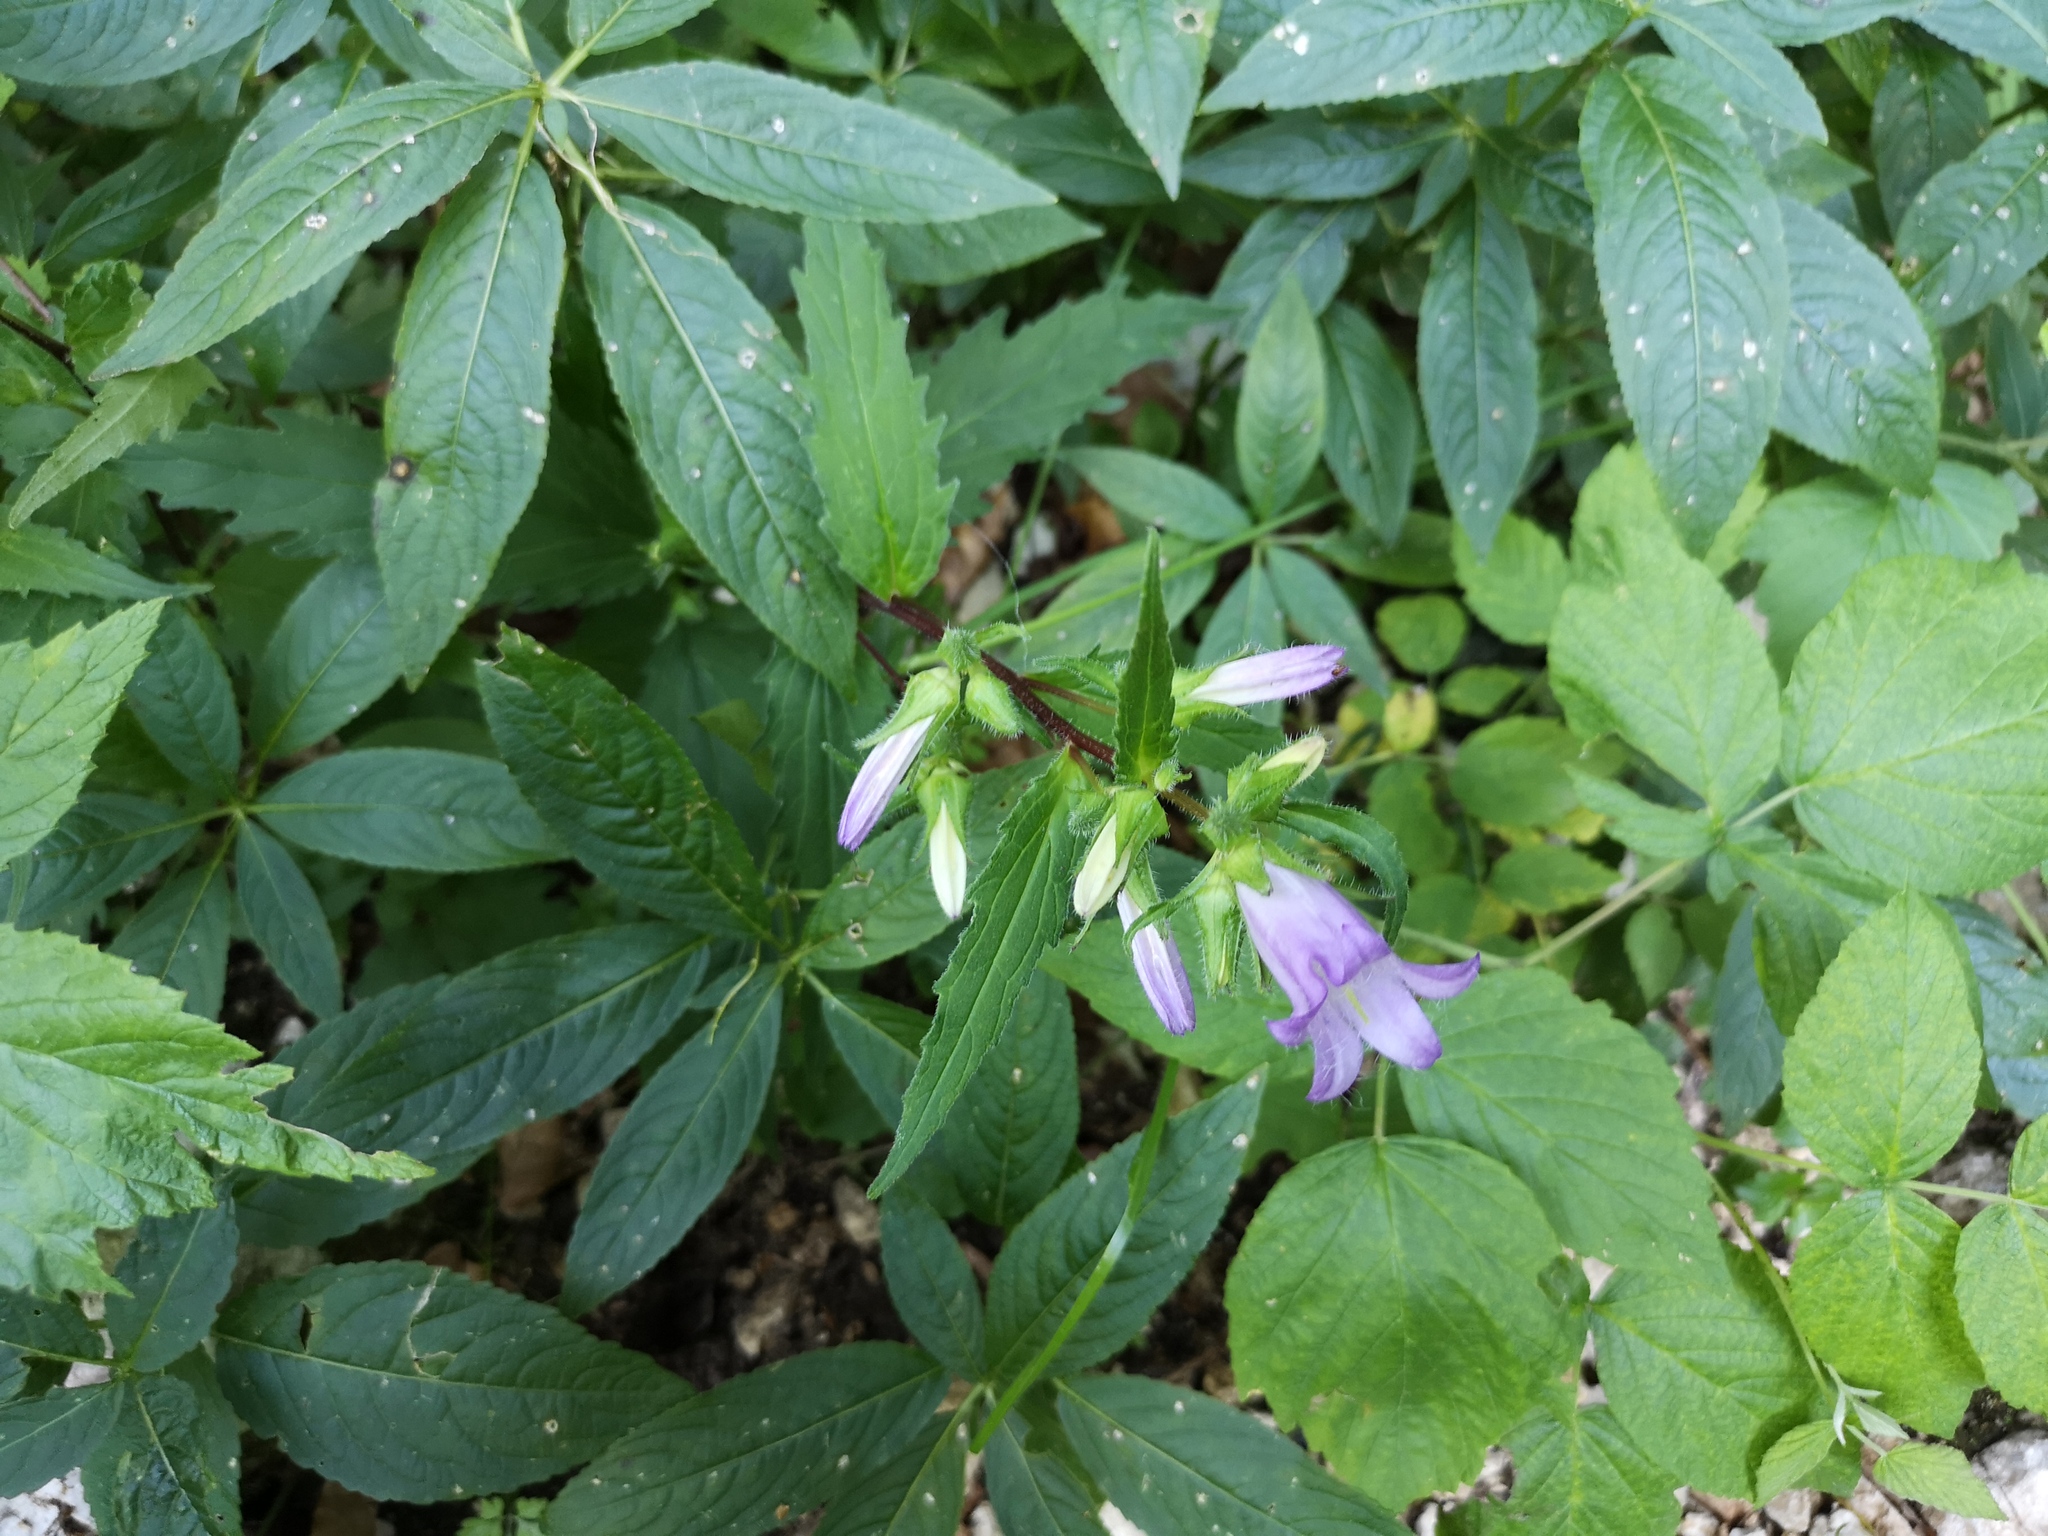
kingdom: Plantae
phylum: Tracheophyta
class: Magnoliopsida
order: Asterales
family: Campanulaceae
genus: Campanula
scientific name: Campanula trachelium
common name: Nettle-leaved bellflower
